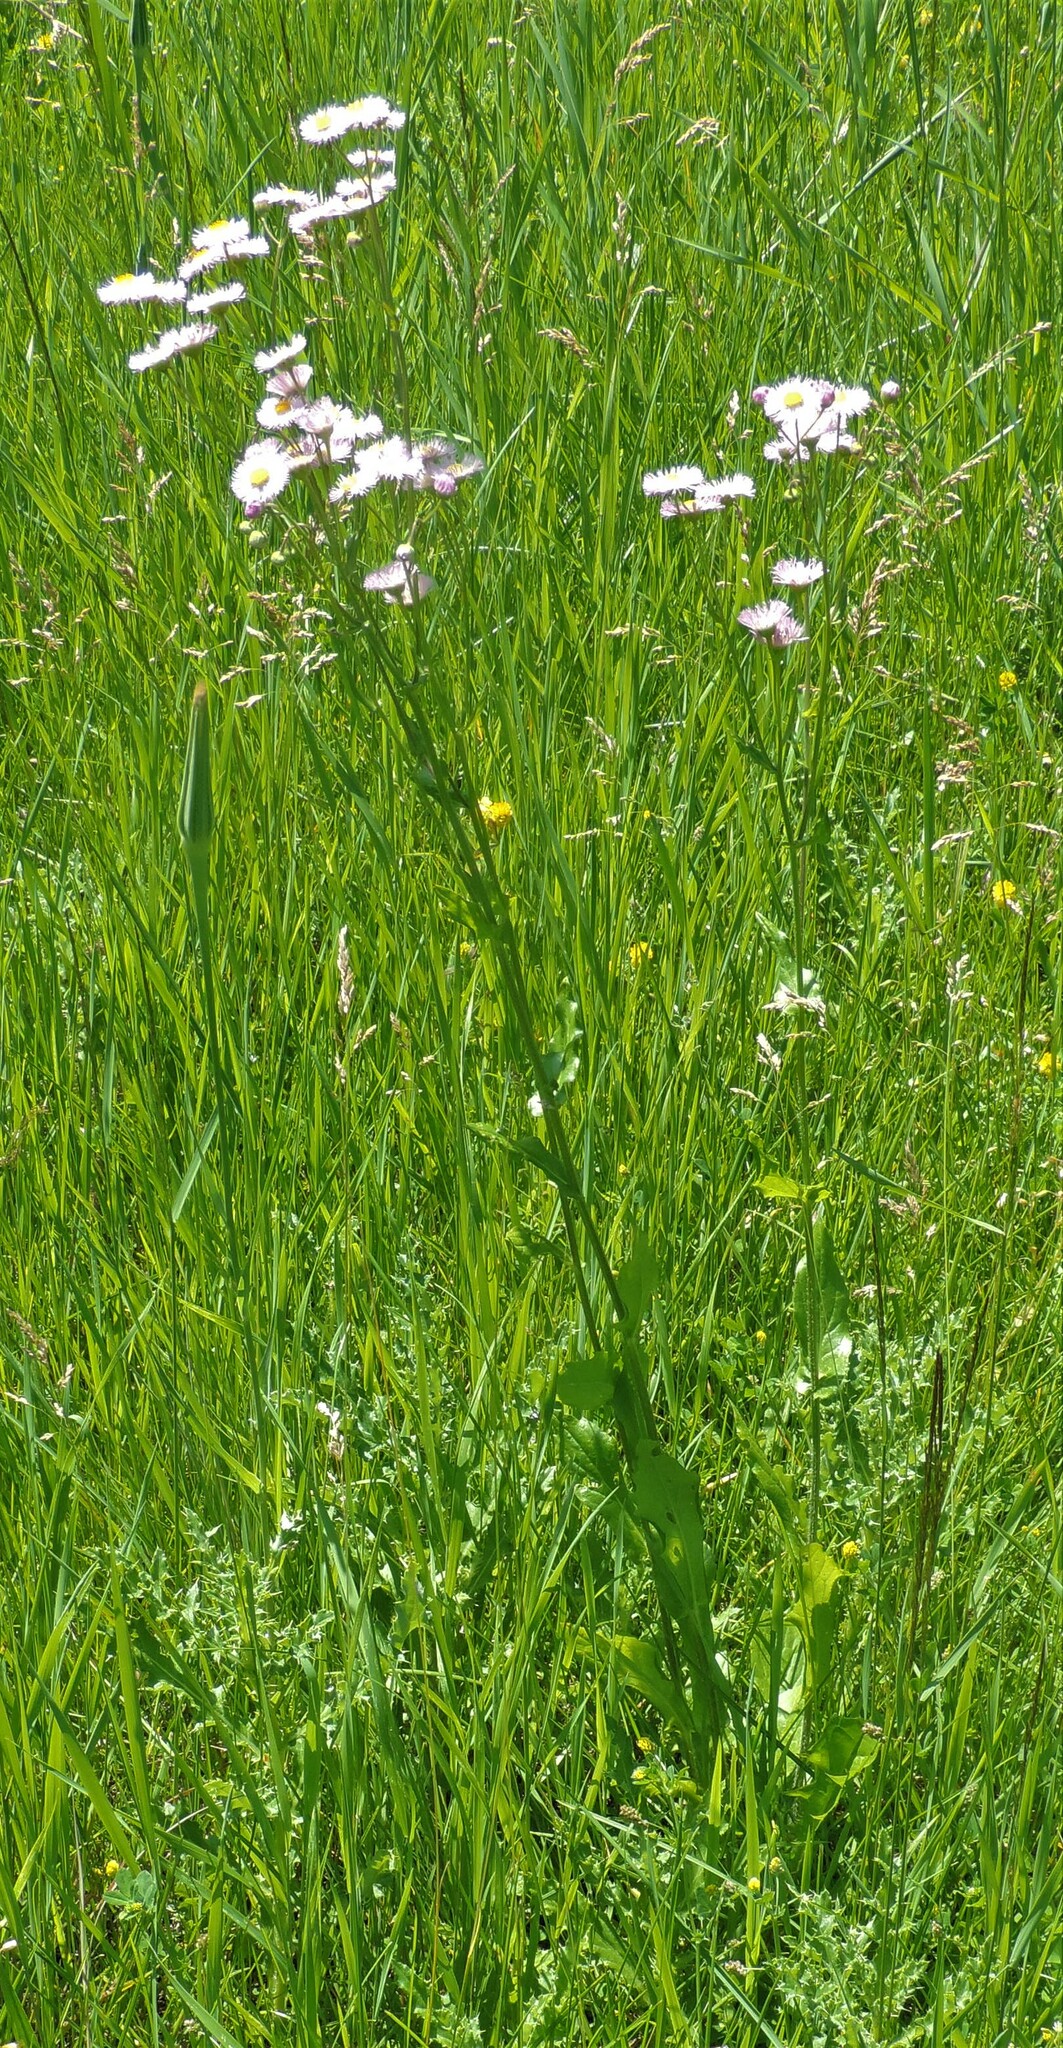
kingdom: Plantae
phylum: Tracheophyta
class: Magnoliopsida
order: Asterales
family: Asteraceae
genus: Erigeron
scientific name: Erigeron philadelphicus
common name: Robin's-plantain
